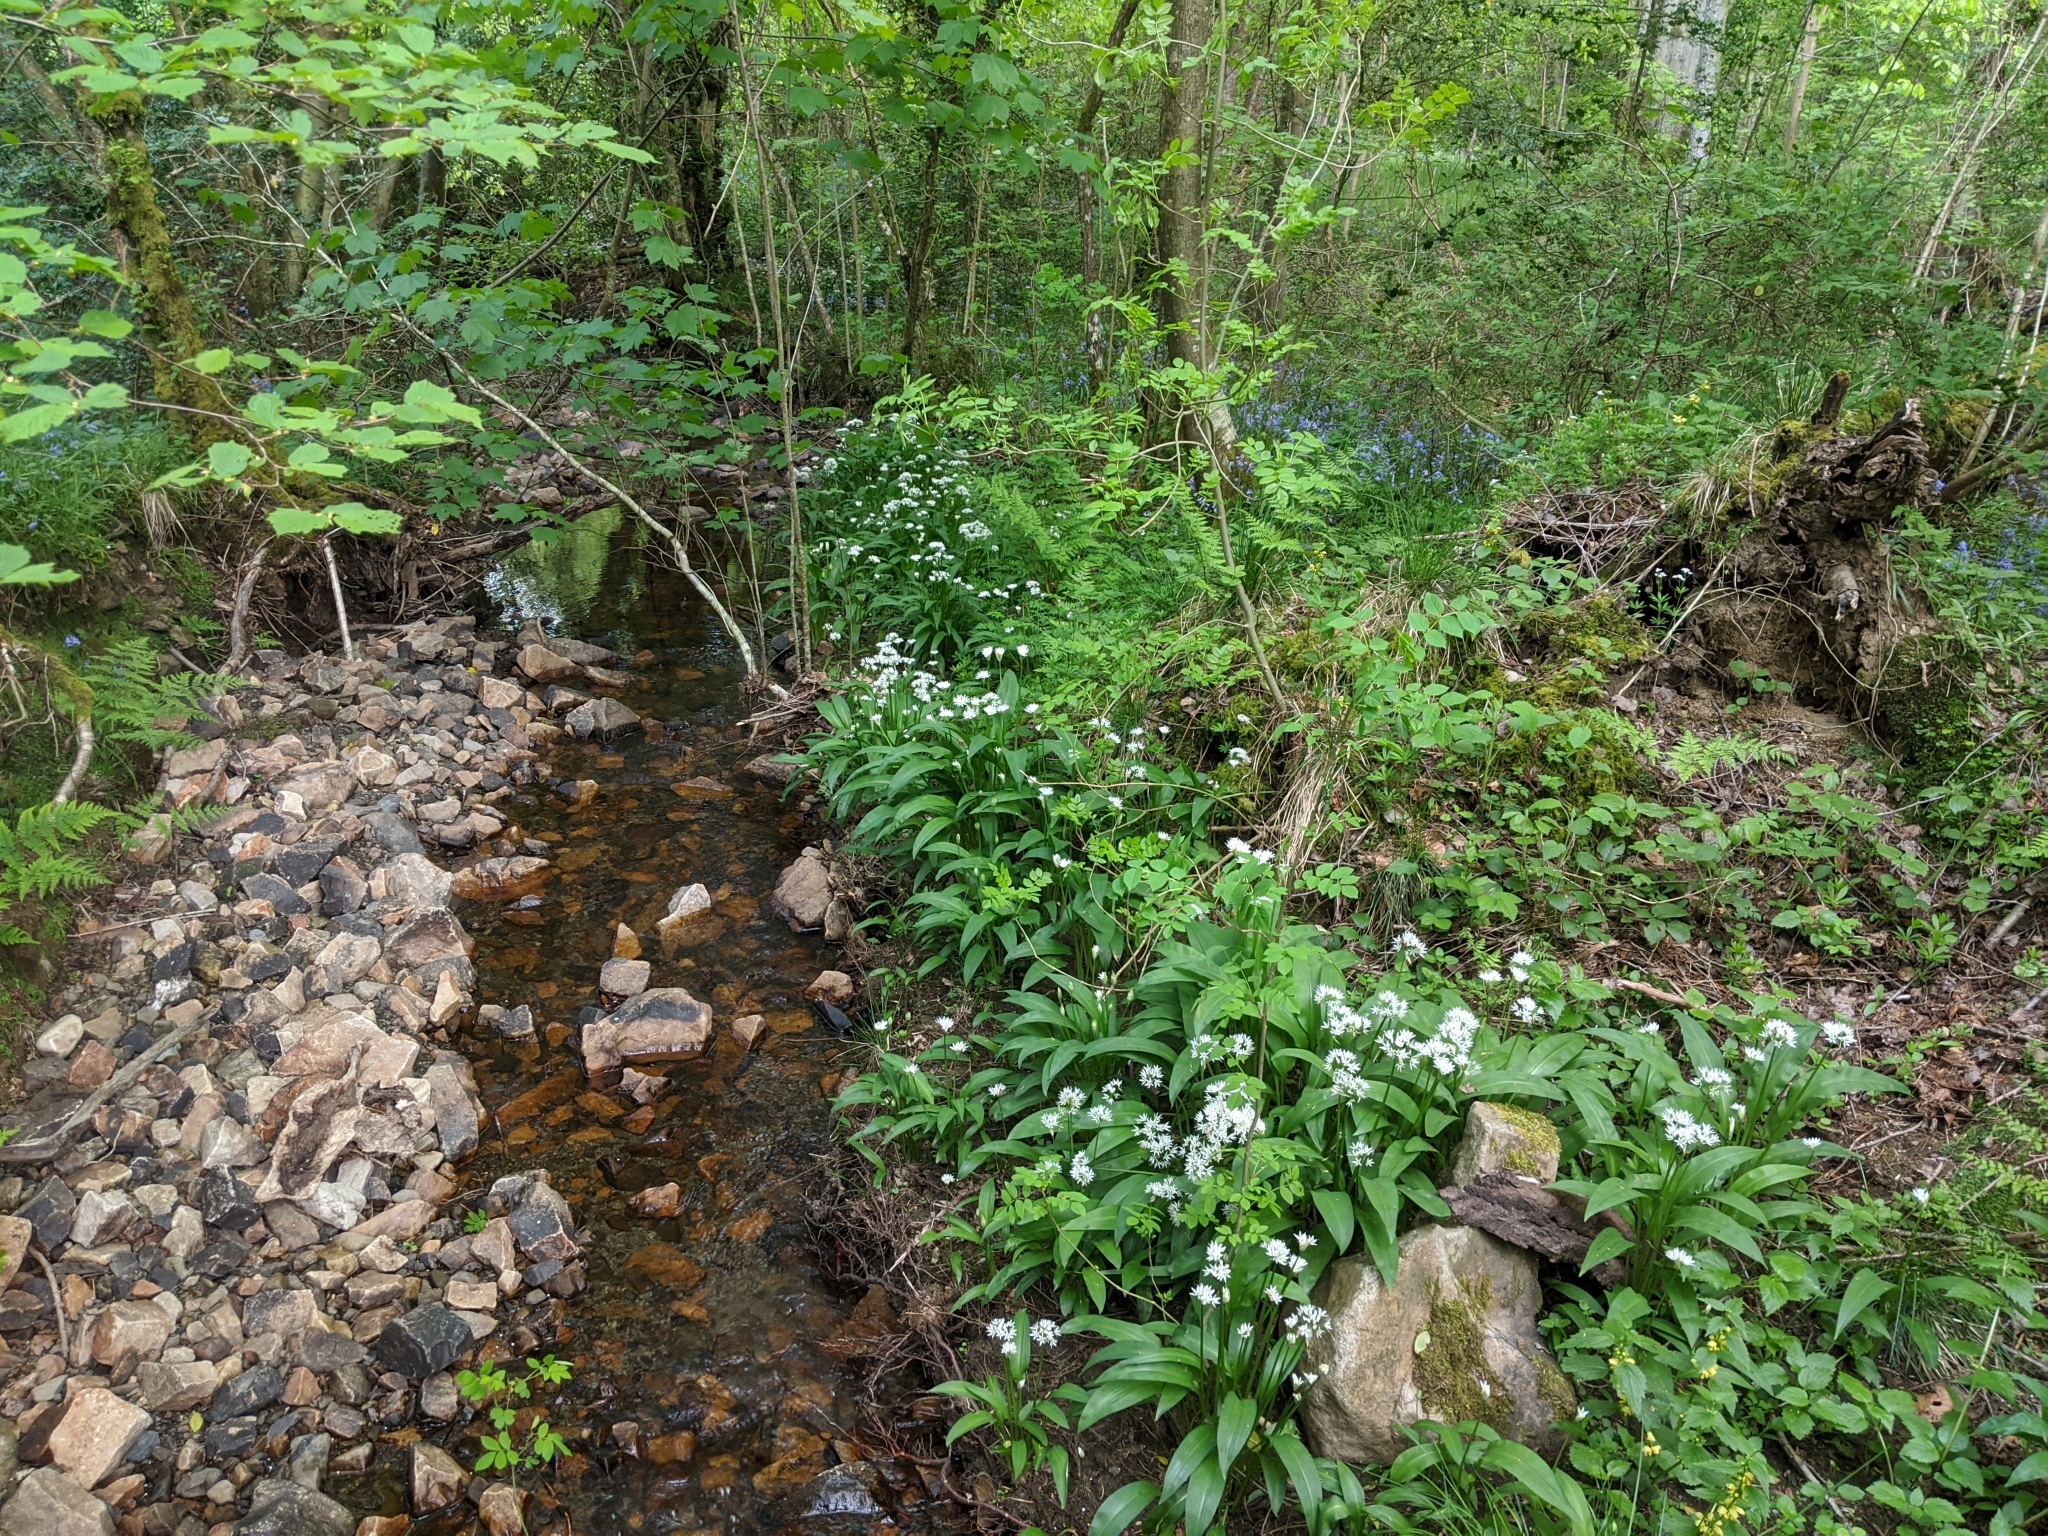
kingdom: Plantae
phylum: Tracheophyta
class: Liliopsida
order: Asparagales
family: Amaryllidaceae
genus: Allium
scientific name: Allium ursinum
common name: Ramsons
